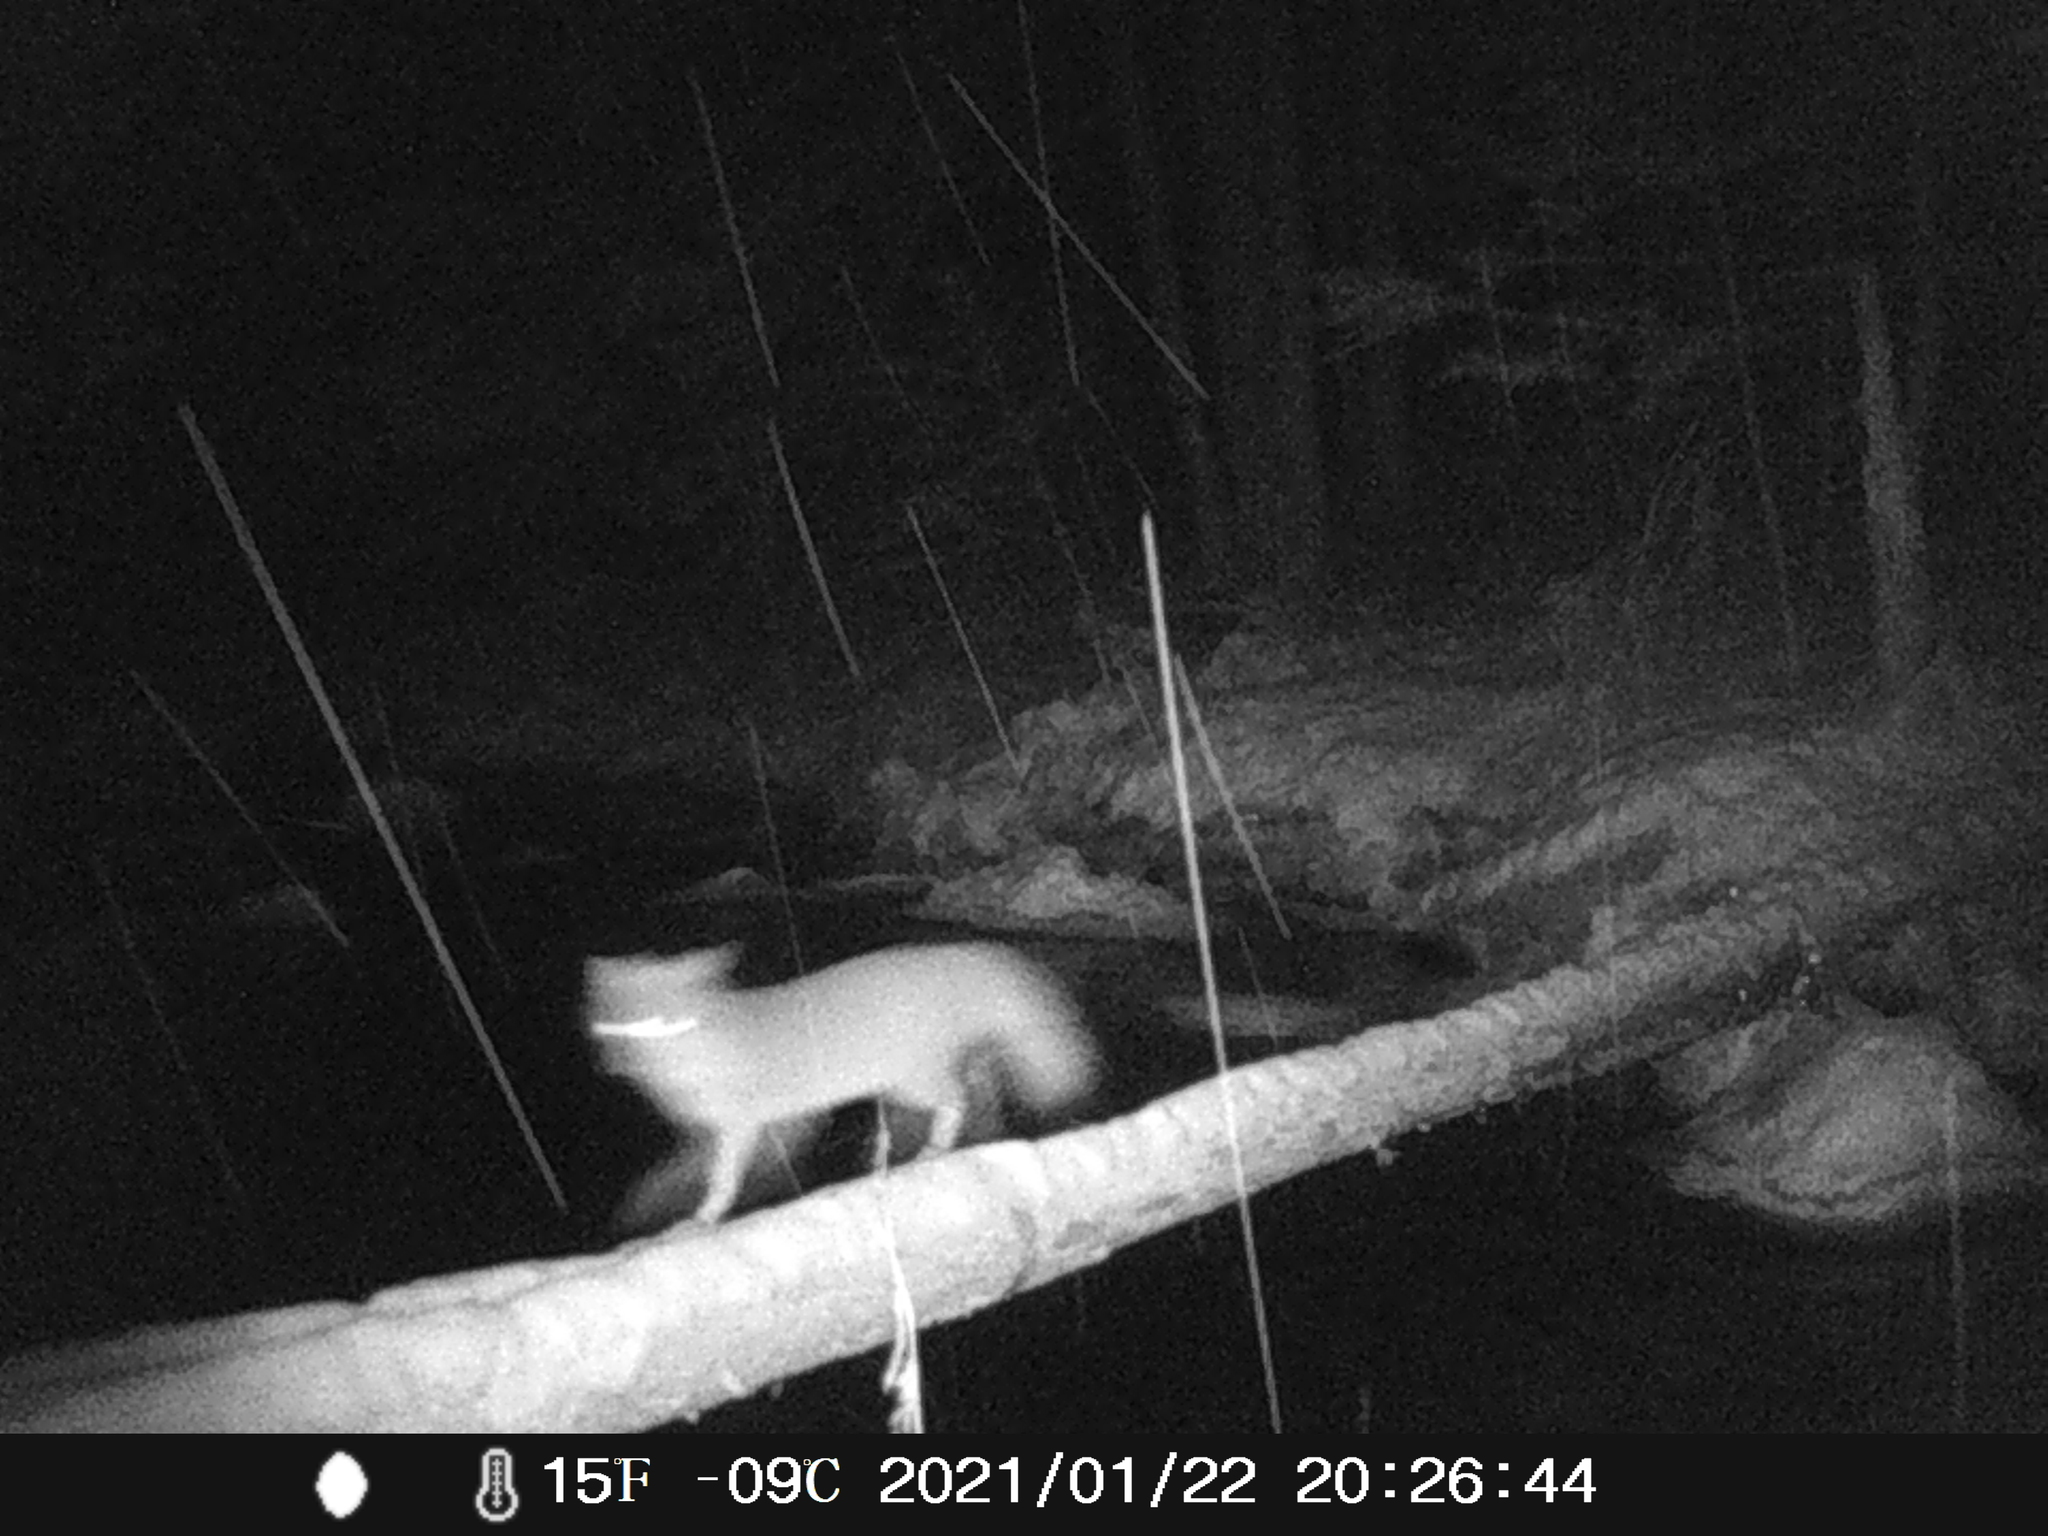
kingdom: Animalia
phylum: Chordata
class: Mammalia
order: Carnivora
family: Canidae
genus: Urocyon
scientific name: Urocyon cinereoargenteus
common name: Gray fox
